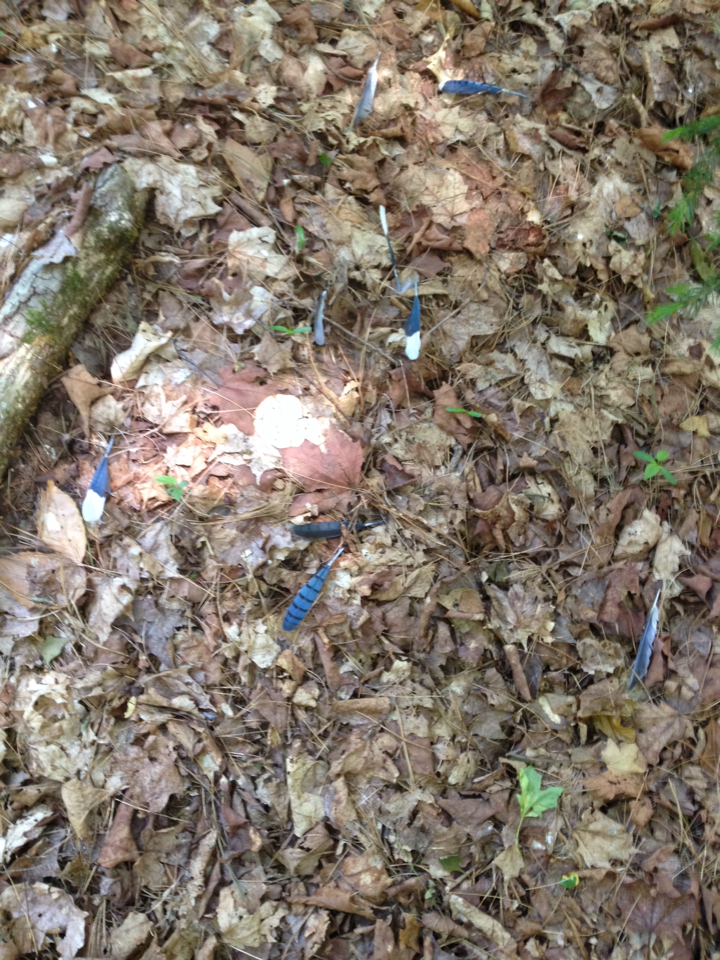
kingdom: Animalia
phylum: Chordata
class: Aves
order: Passeriformes
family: Corvidae
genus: Cyanocitta
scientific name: Cyanocitta cristata
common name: Blue jay
